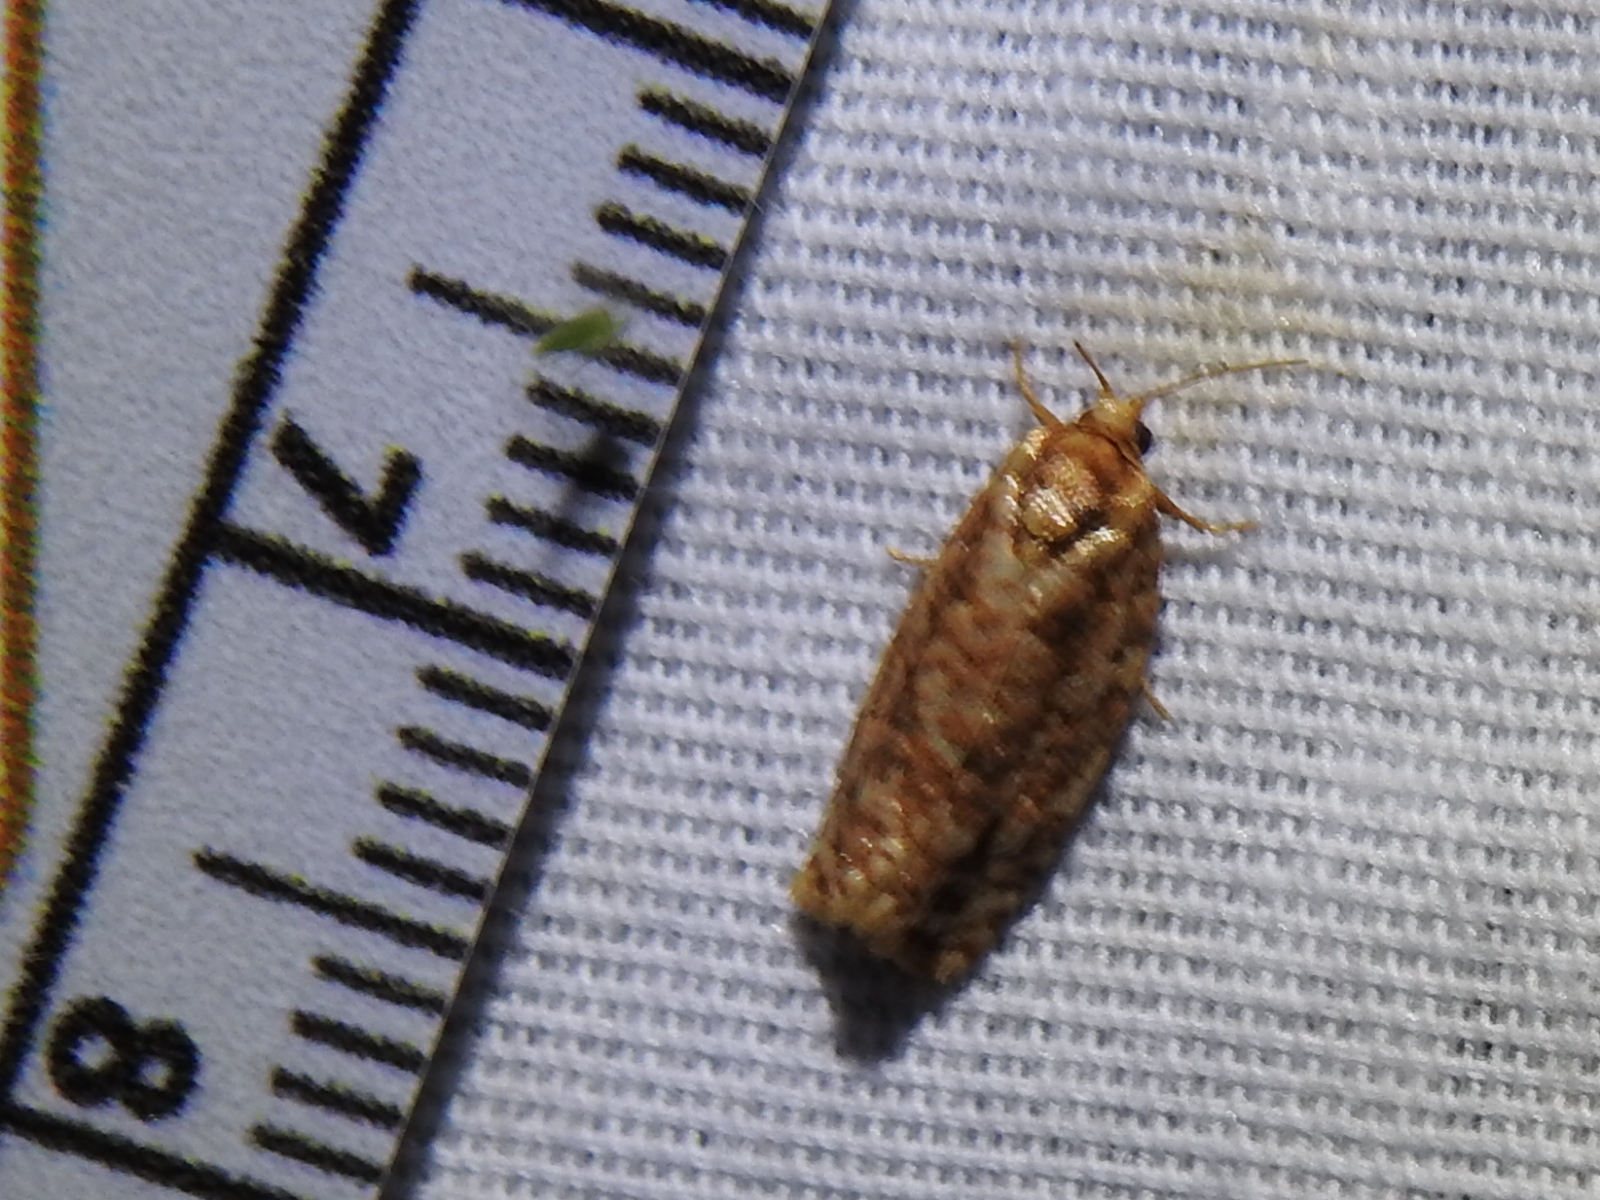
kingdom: Animalia
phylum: Arthropoda
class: Insecta
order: Lepidoptera
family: Tortricidae
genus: Choristoneura
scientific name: Choristoneura houstonana
